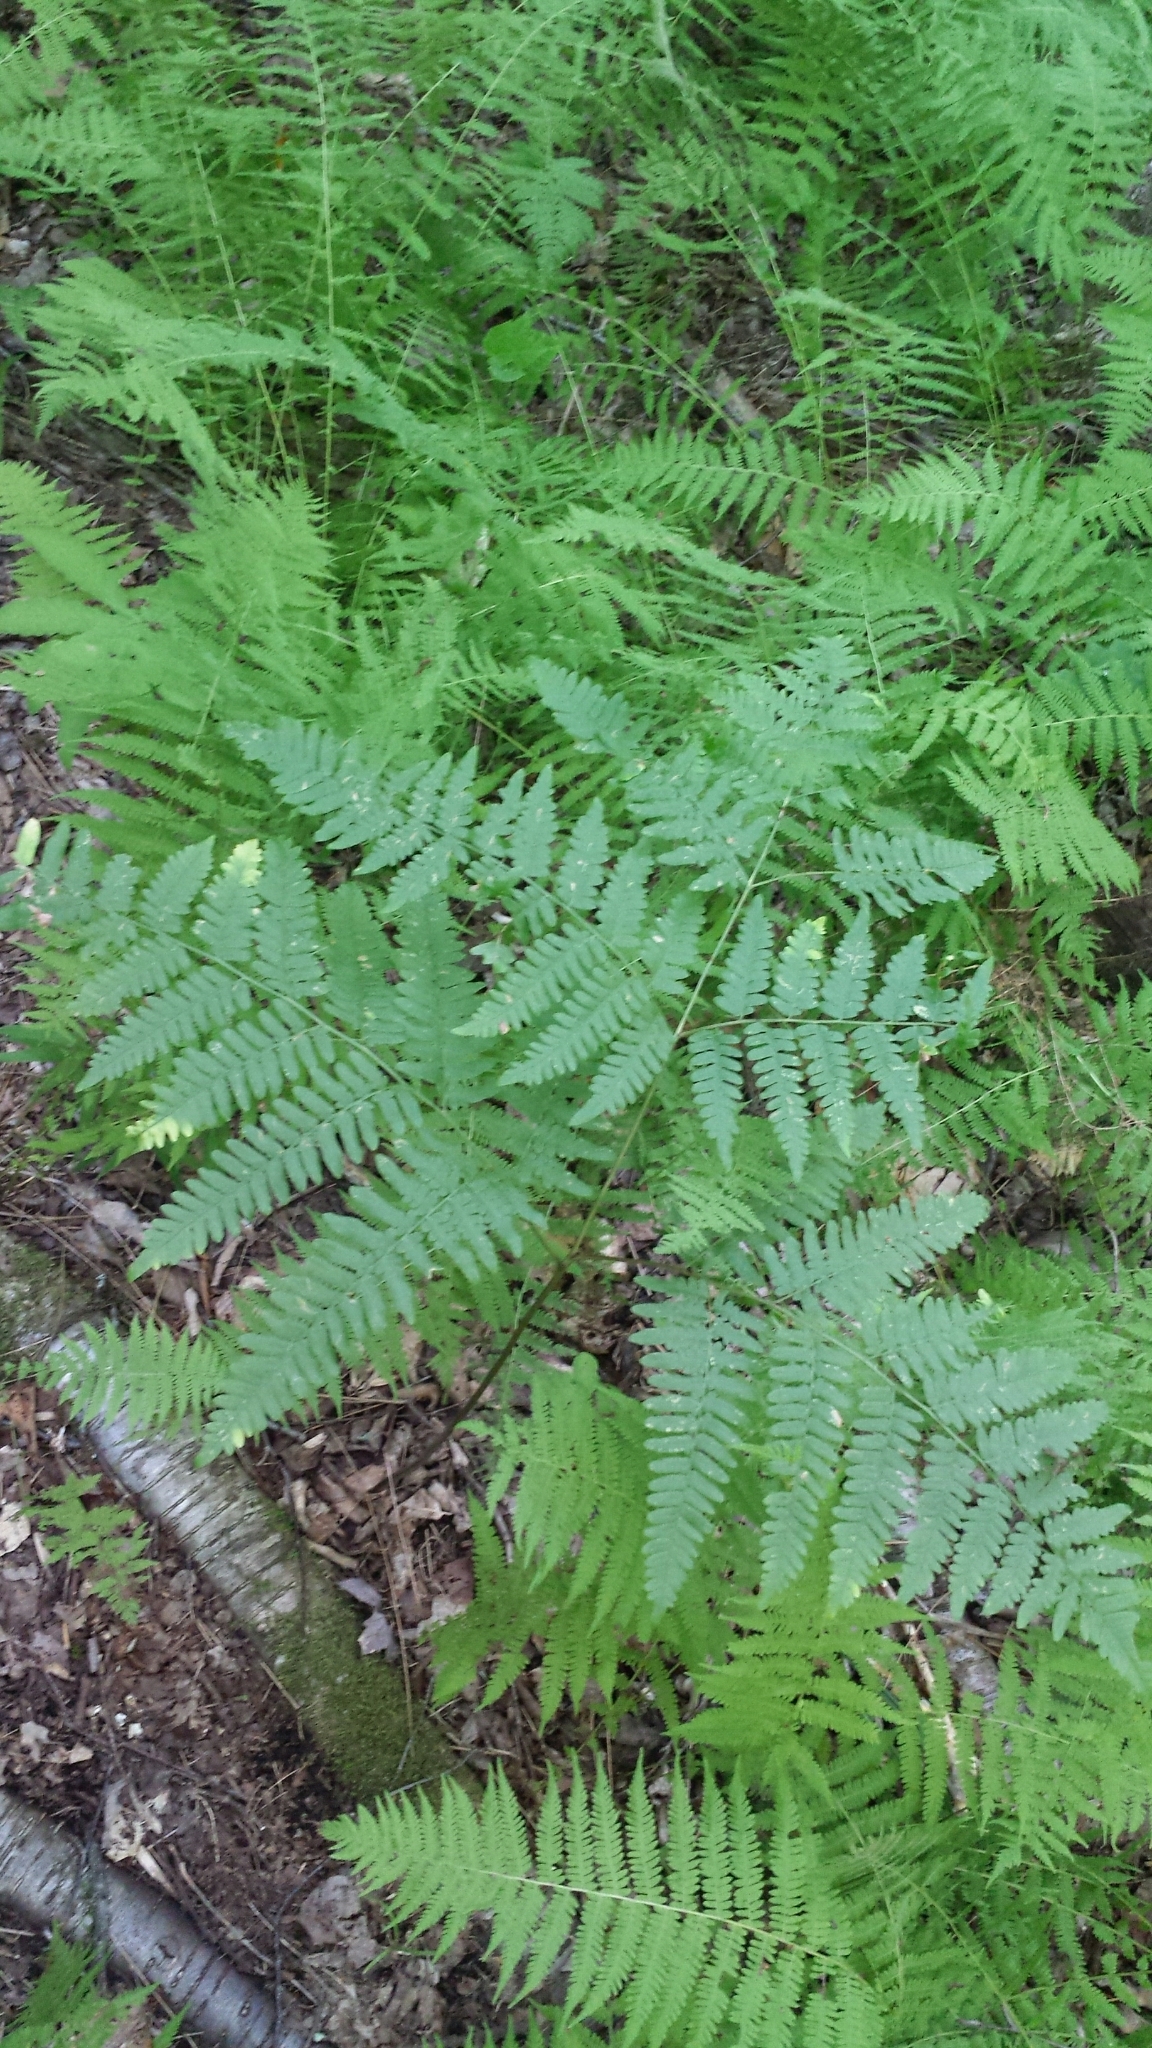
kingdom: Plantae
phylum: Tracheophyta
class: Polypodiopsida
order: Polypodiales
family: Dennstaedtiaceae
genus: Pteridium
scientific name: Pteridium aquilinum
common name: Bracken
